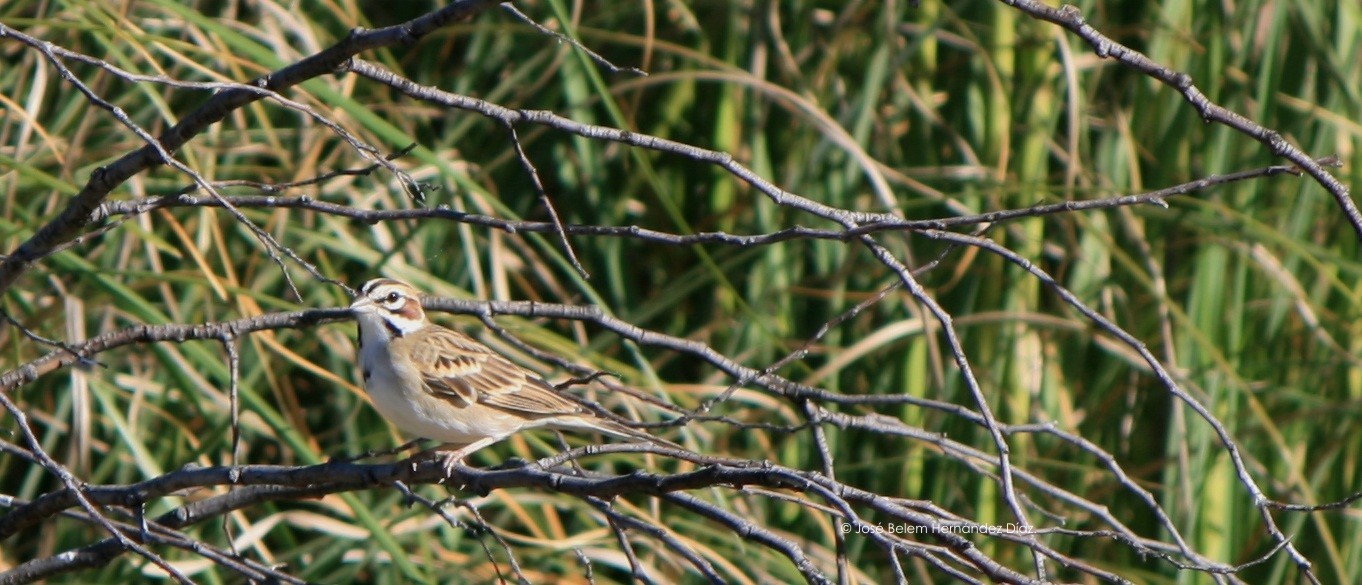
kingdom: Animalia
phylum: Chordata
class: Aves
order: Passeriformes
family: Passerellidae
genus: Chondestes
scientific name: Chondestes grammacus
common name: Lark sparrow
